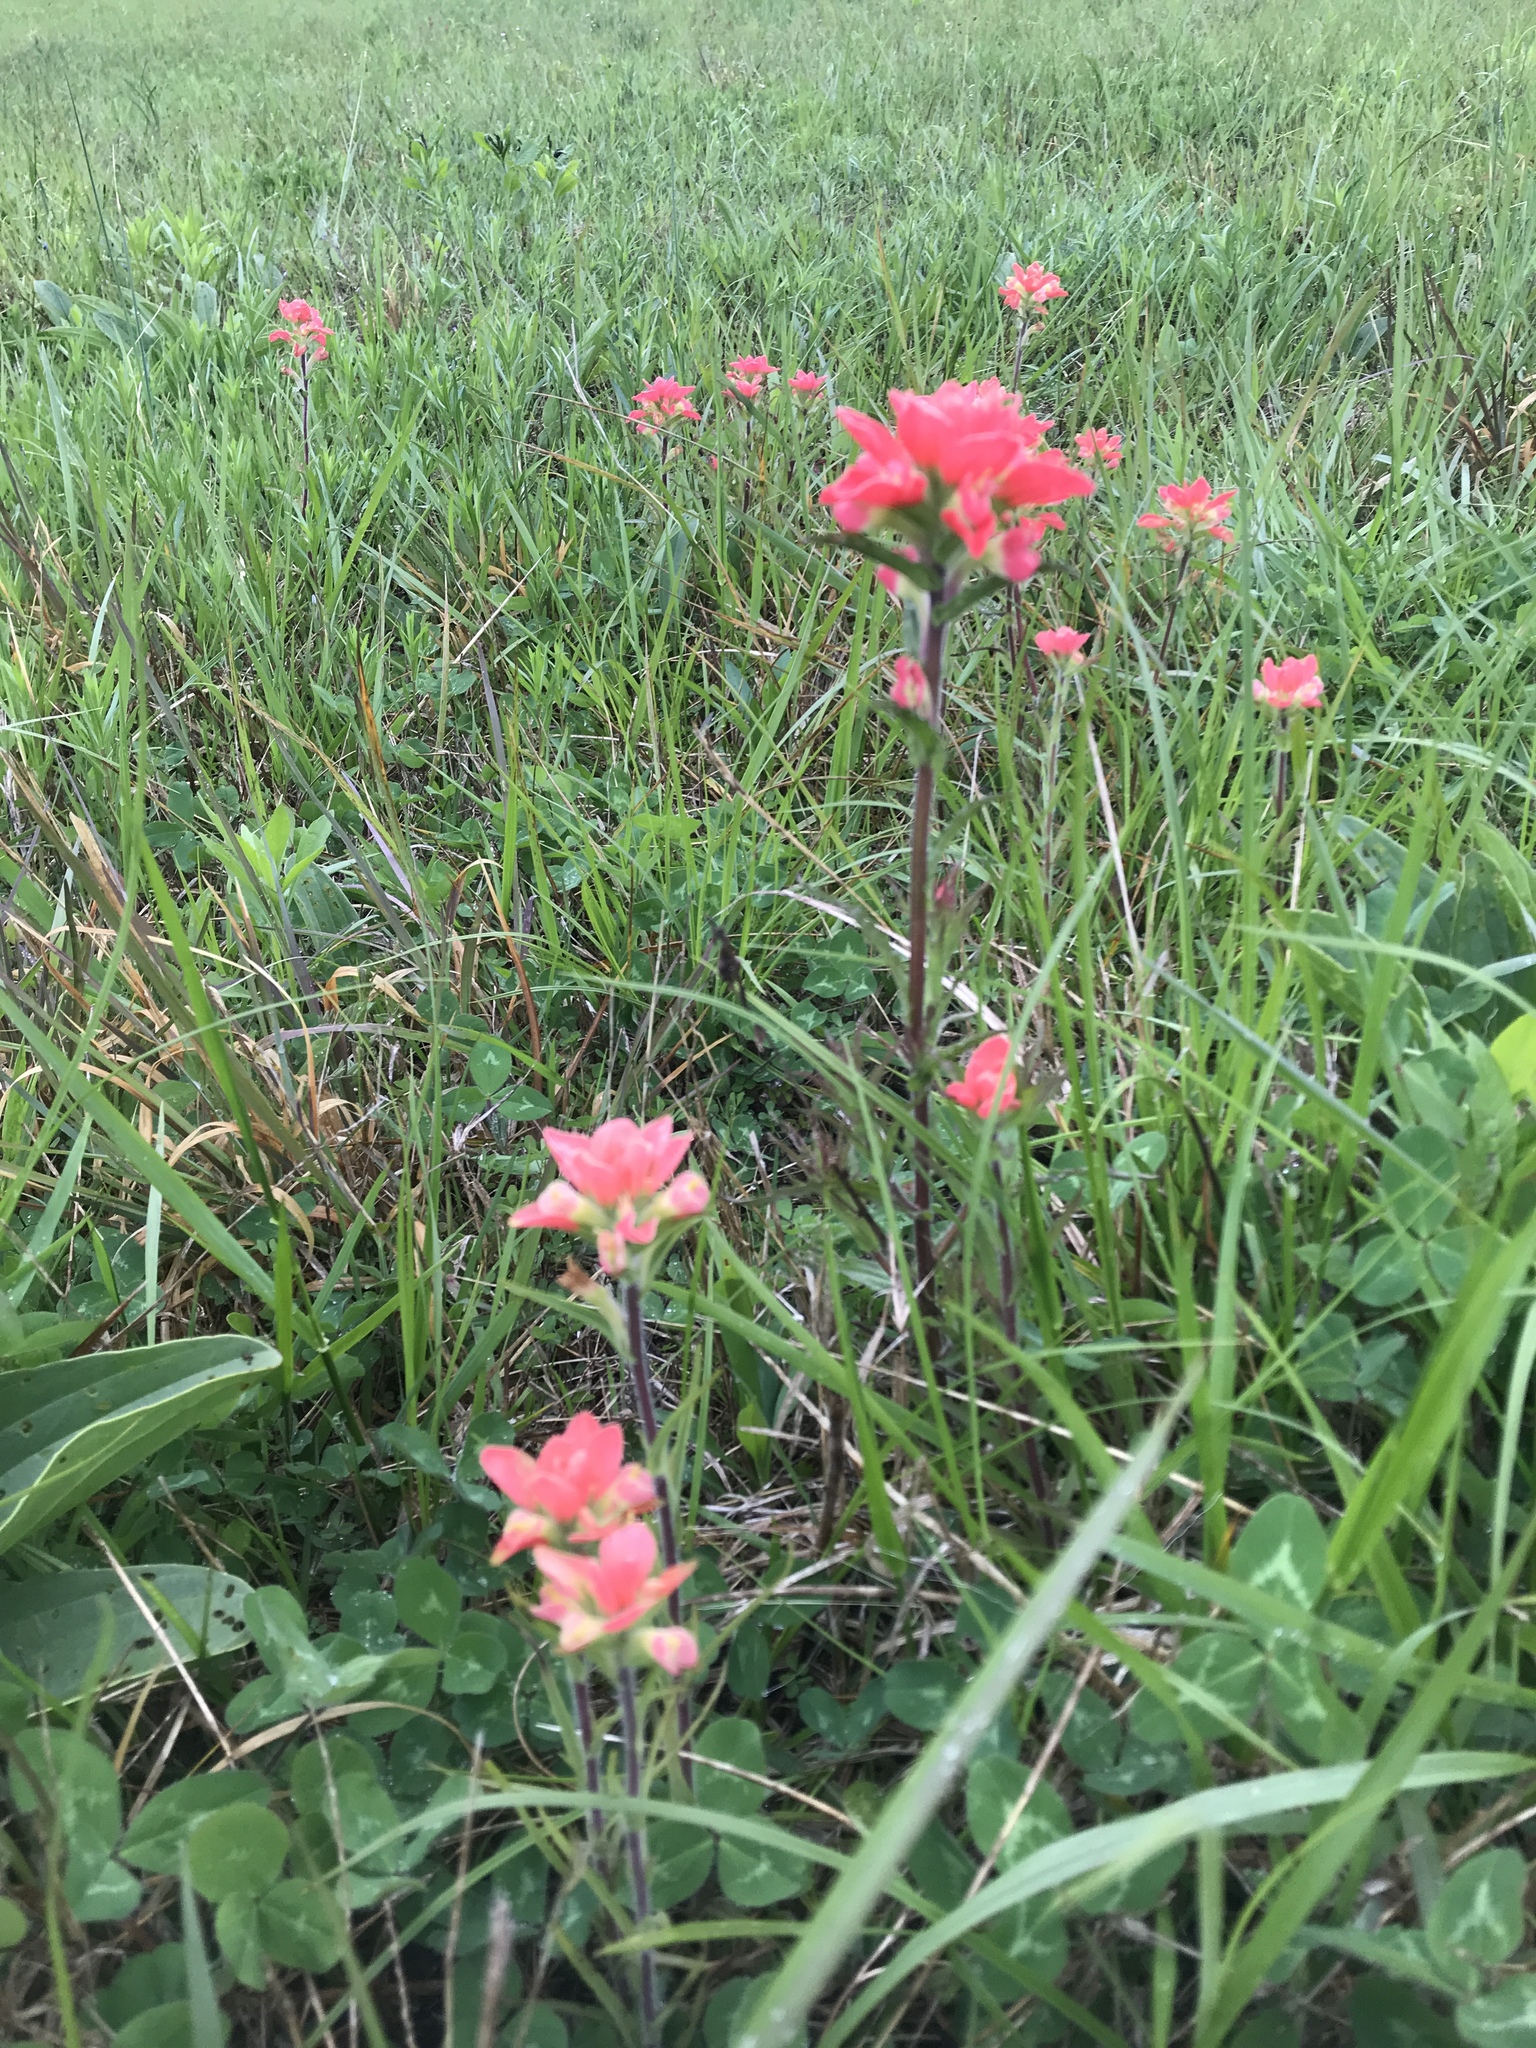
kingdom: Plantae
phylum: Tracheophyta
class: Magnoliopsida
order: Lamiales
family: Orobanchaceae
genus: Castilleja
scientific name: Castilleja indivisa
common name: Texas paintbrush
